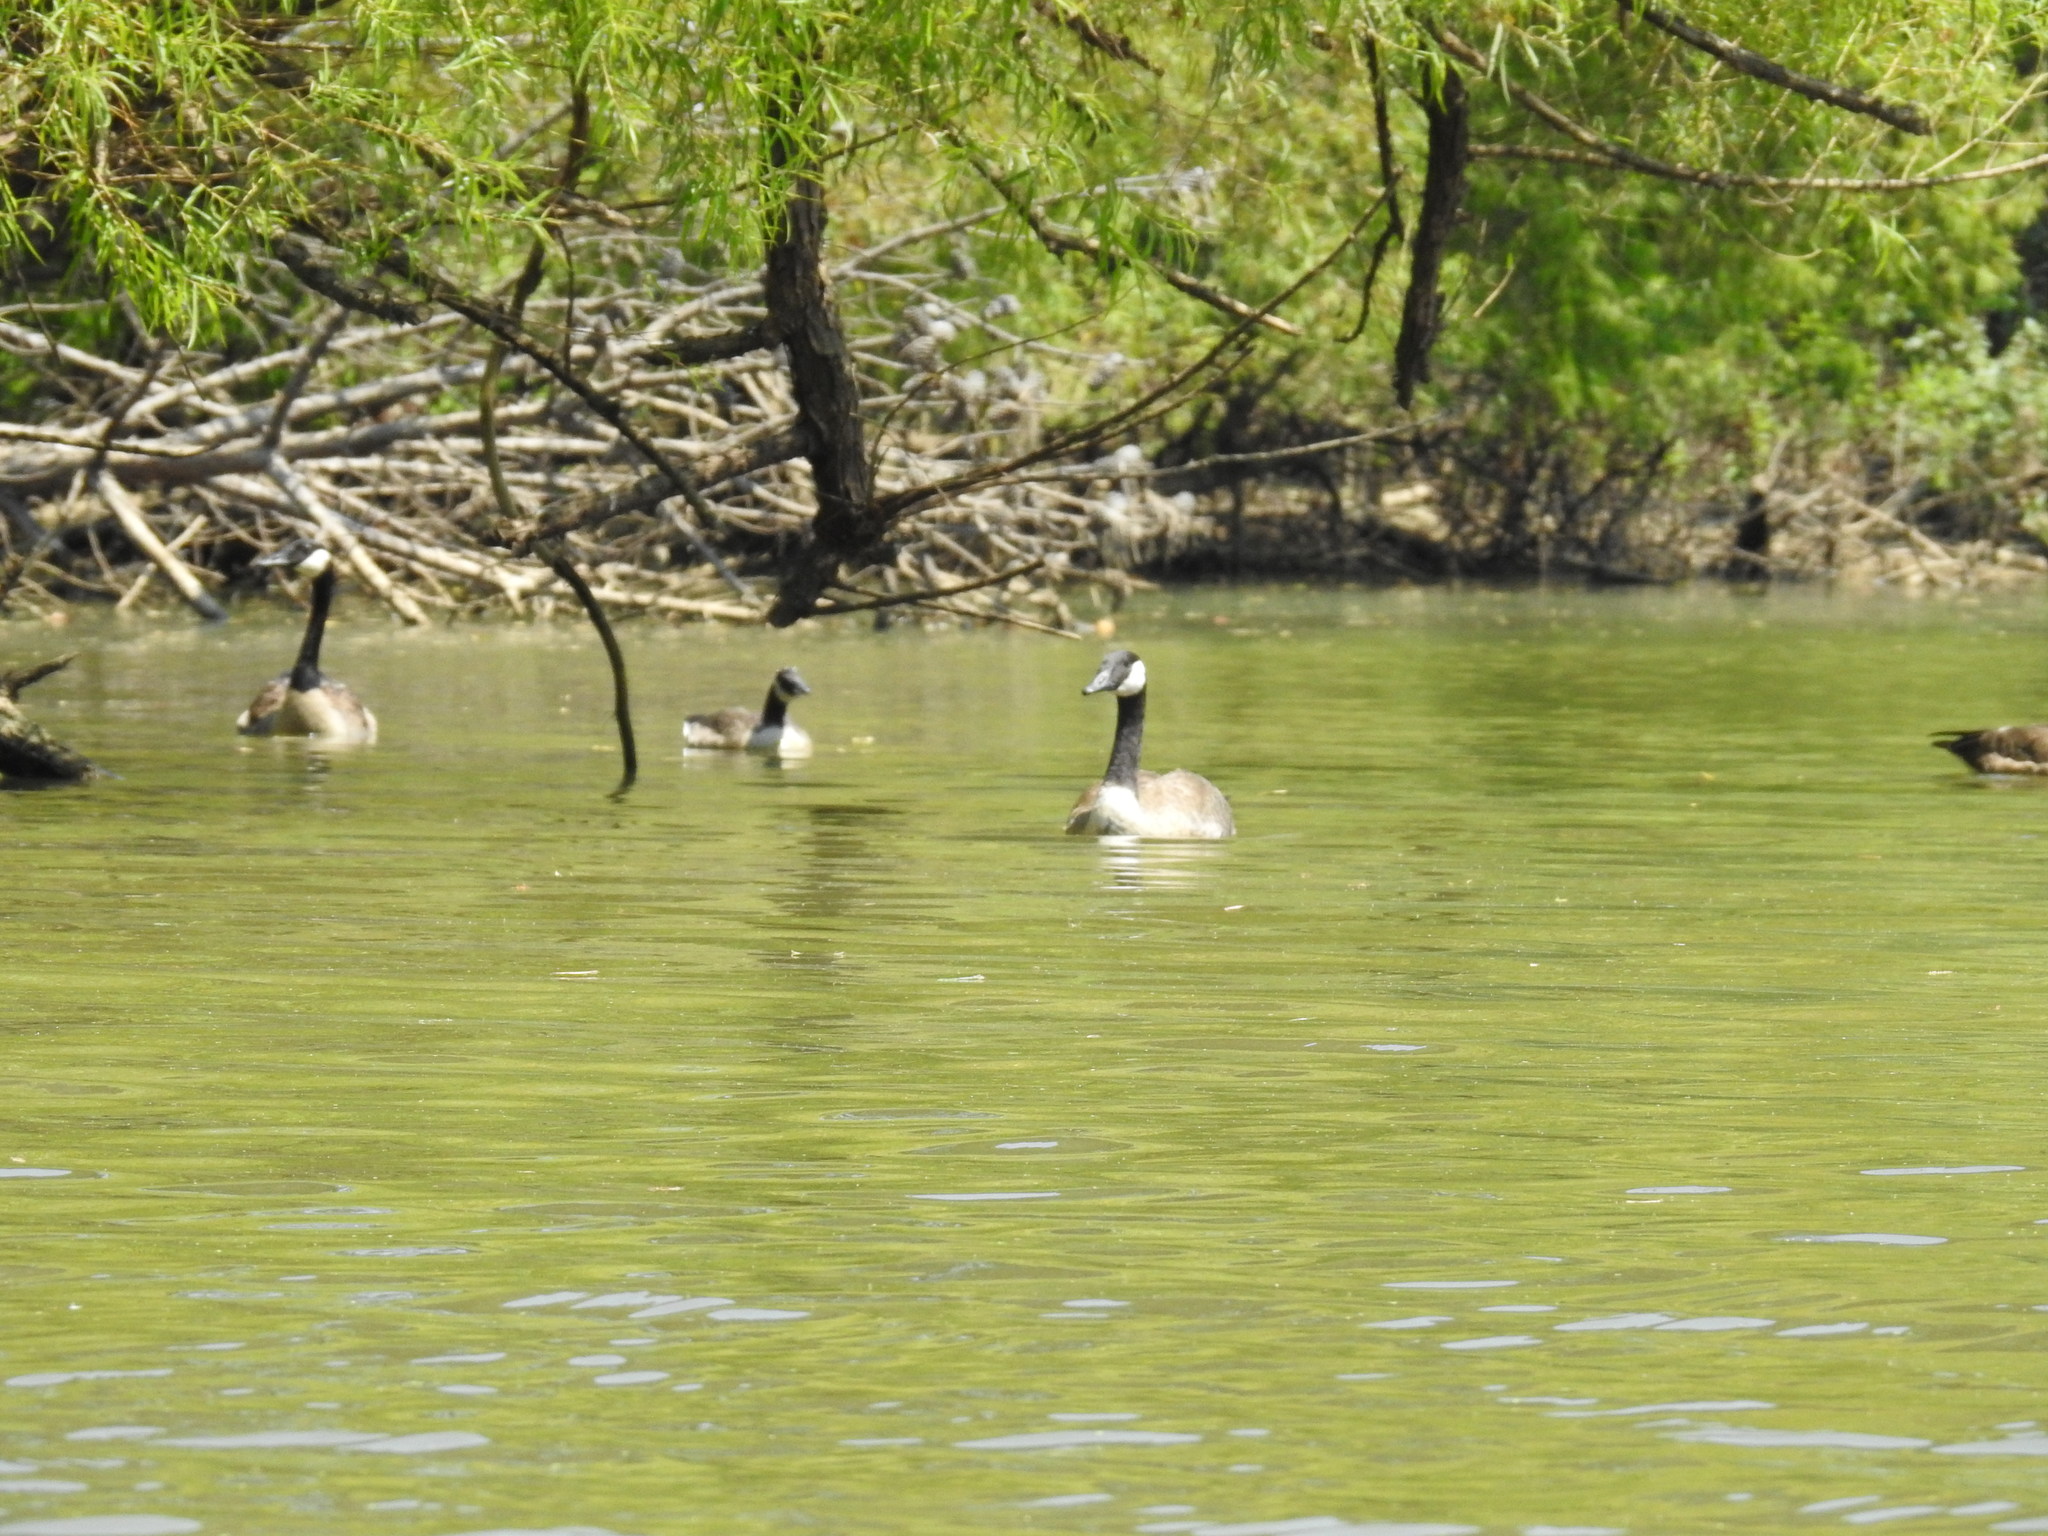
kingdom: Animalia
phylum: Chordata
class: Aves
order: Anseriformes
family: Anatidae
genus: Branta
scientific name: Branta canadensis
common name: Canada goose
